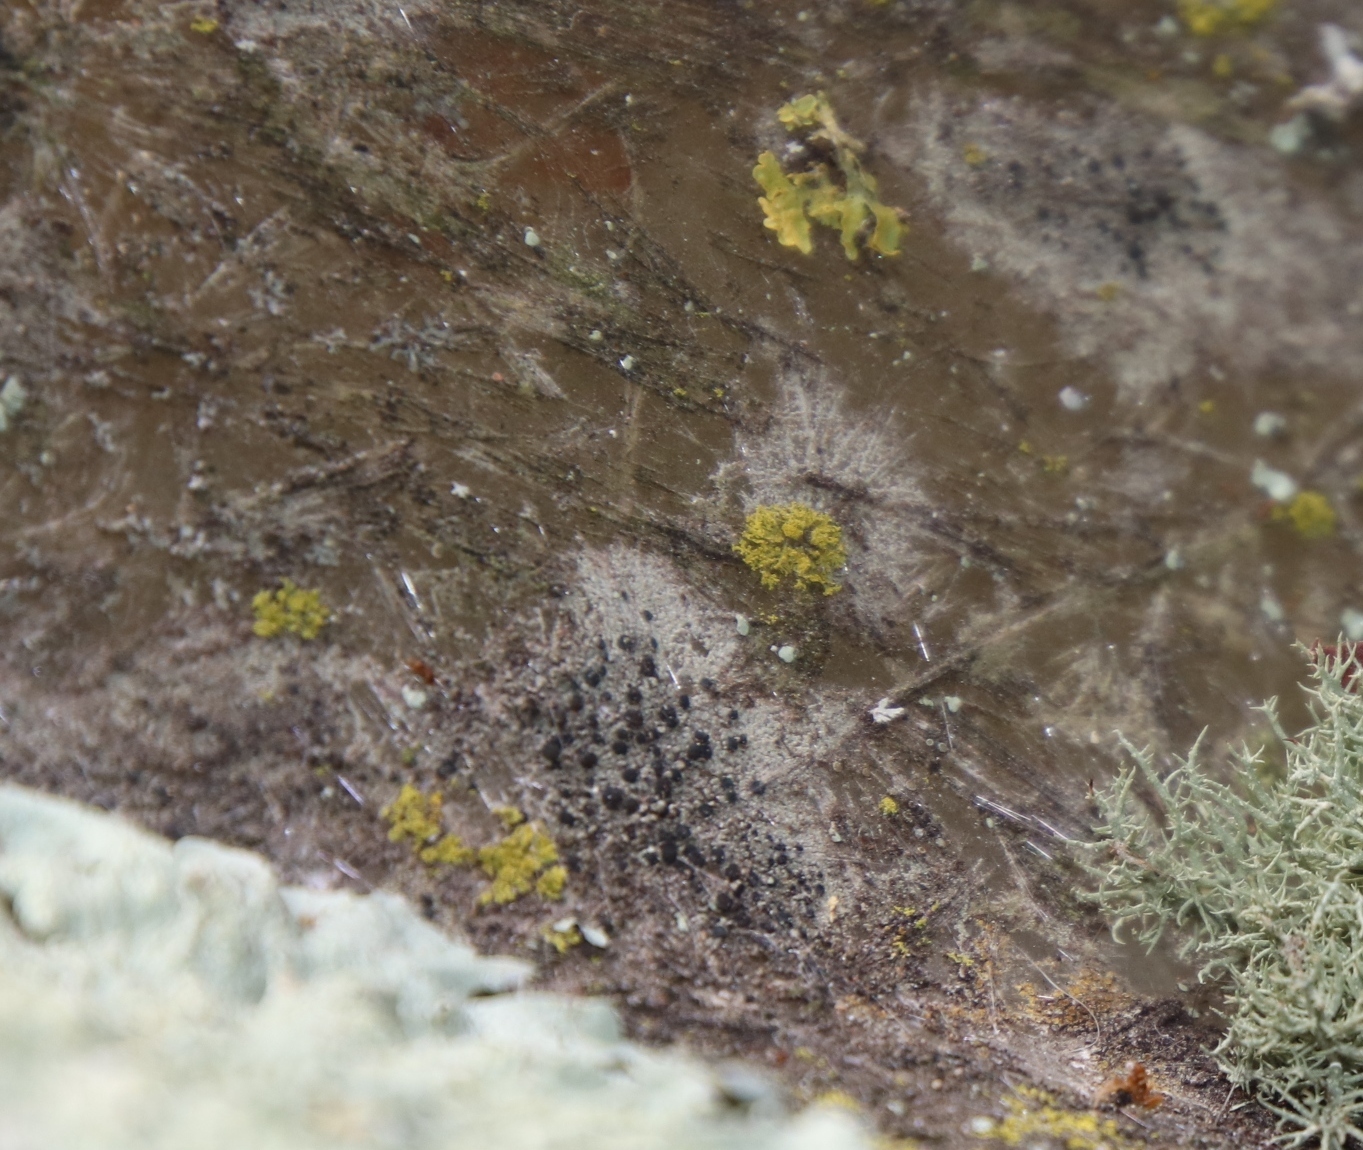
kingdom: Fungi
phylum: Ascomycota
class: Candelariomycetes
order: Candelariales
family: Candelariaceae
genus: Candelaria
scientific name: Candelaria concolor
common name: Candleflame lichen
